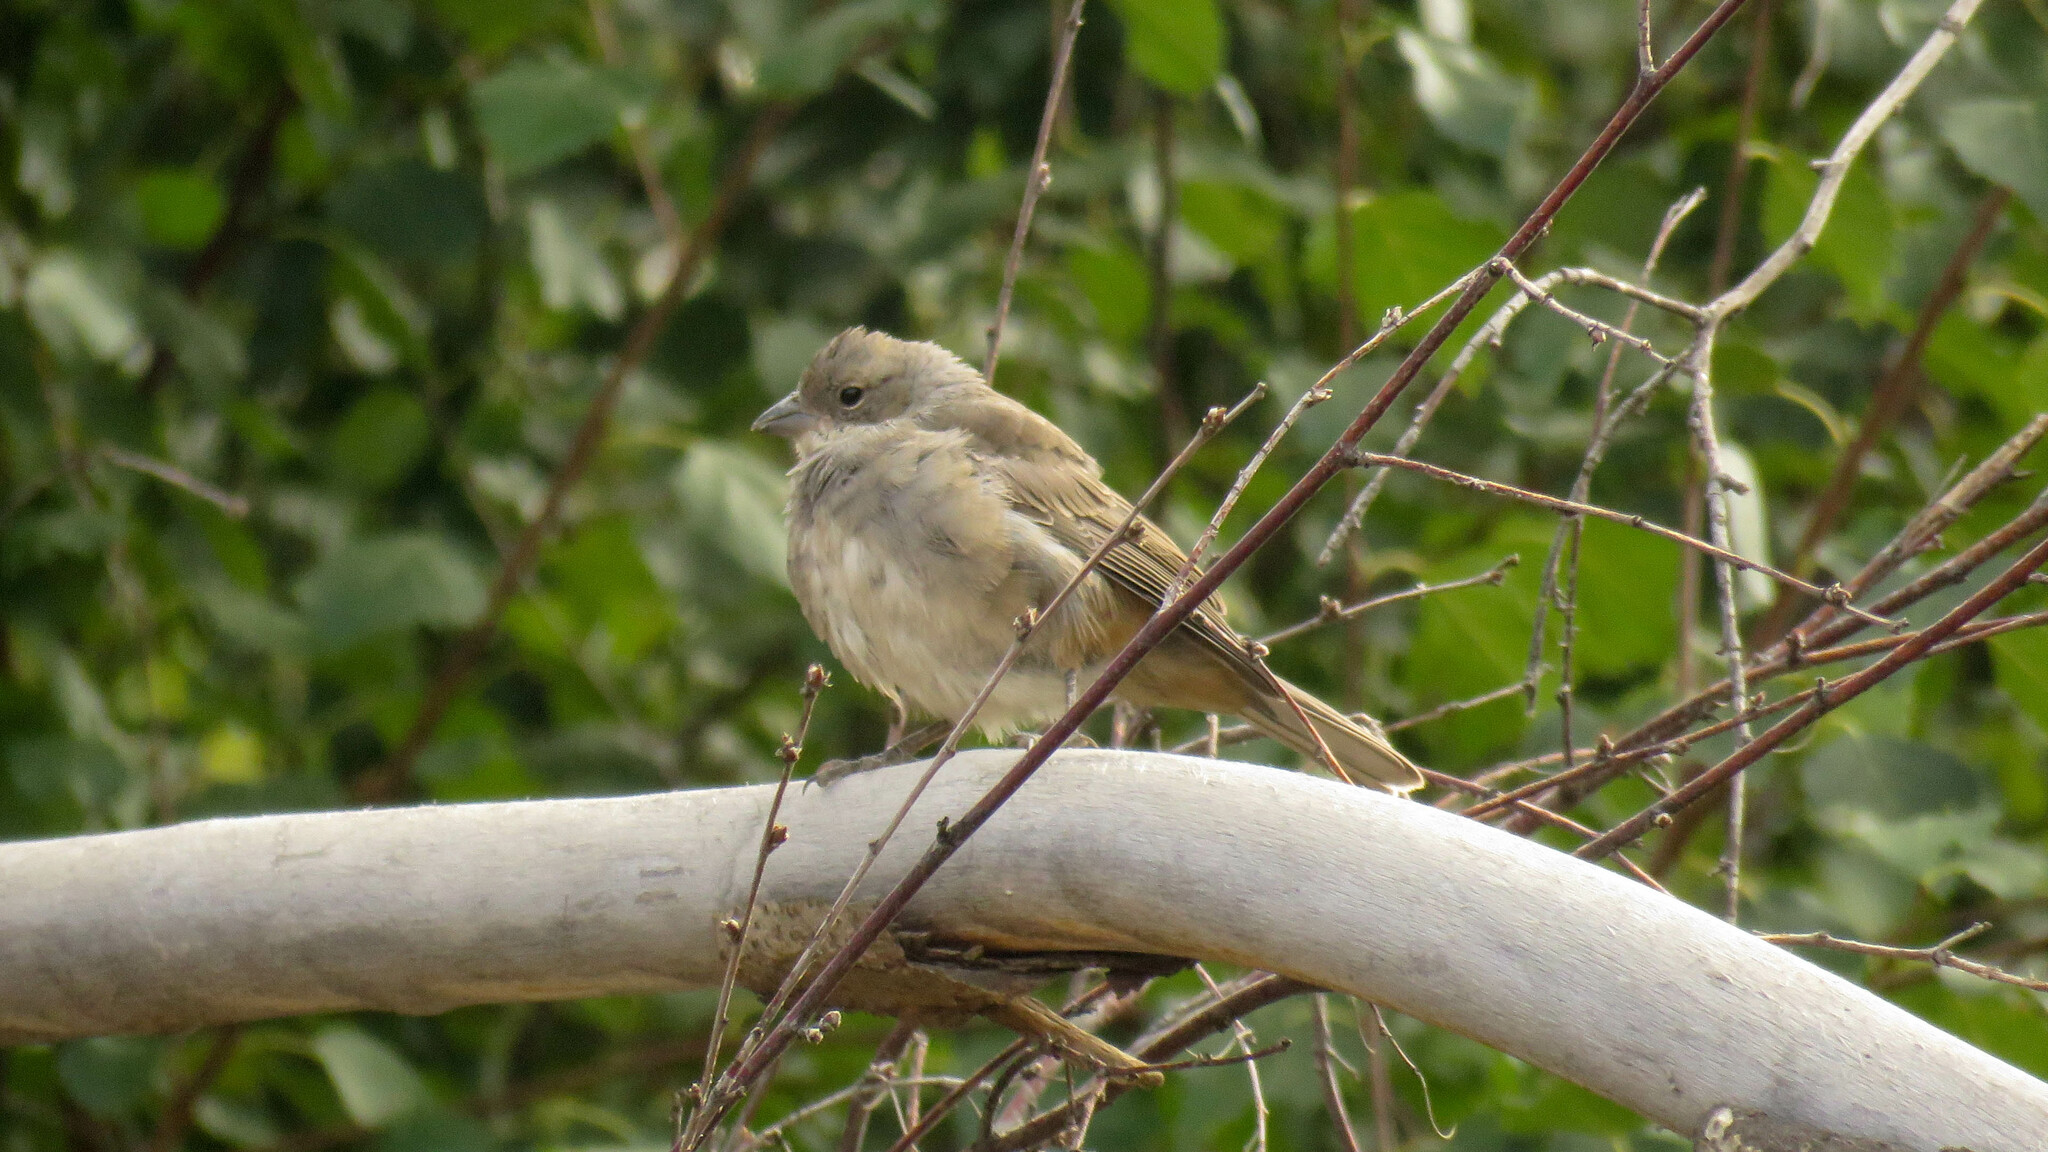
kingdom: Animalia
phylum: Chordata
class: Aves
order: Passeriformes
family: Thraupidae
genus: Diuca
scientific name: Diuca diuca
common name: Common diuca finch
